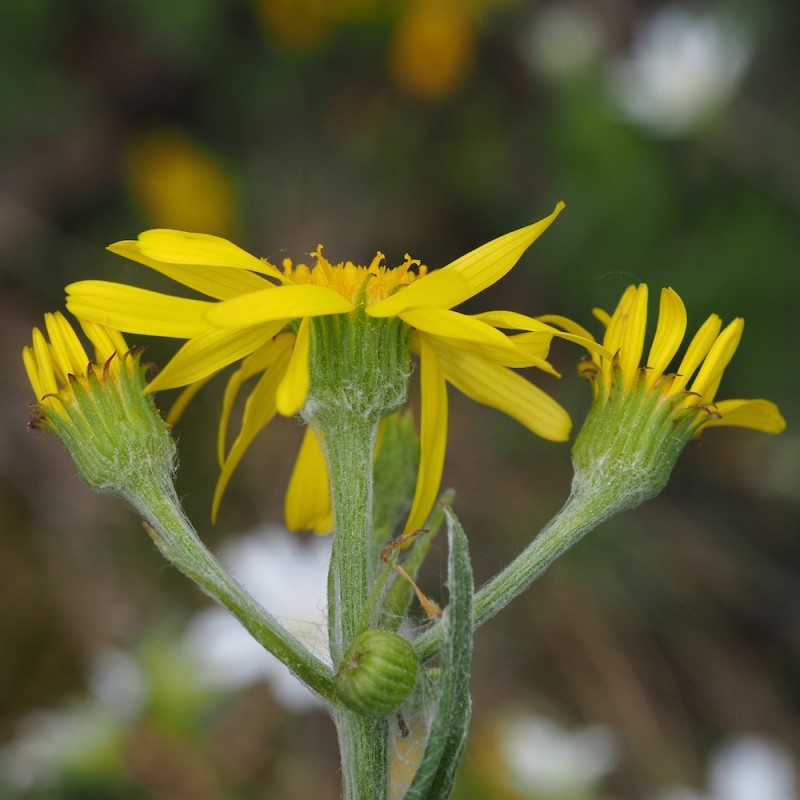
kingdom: Plantae
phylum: Tracheophyta
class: Magnoliopsida
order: Asterales
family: Asteraceae
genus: Tephroseris
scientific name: Tephroseris integrifolia
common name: Field fleawort
